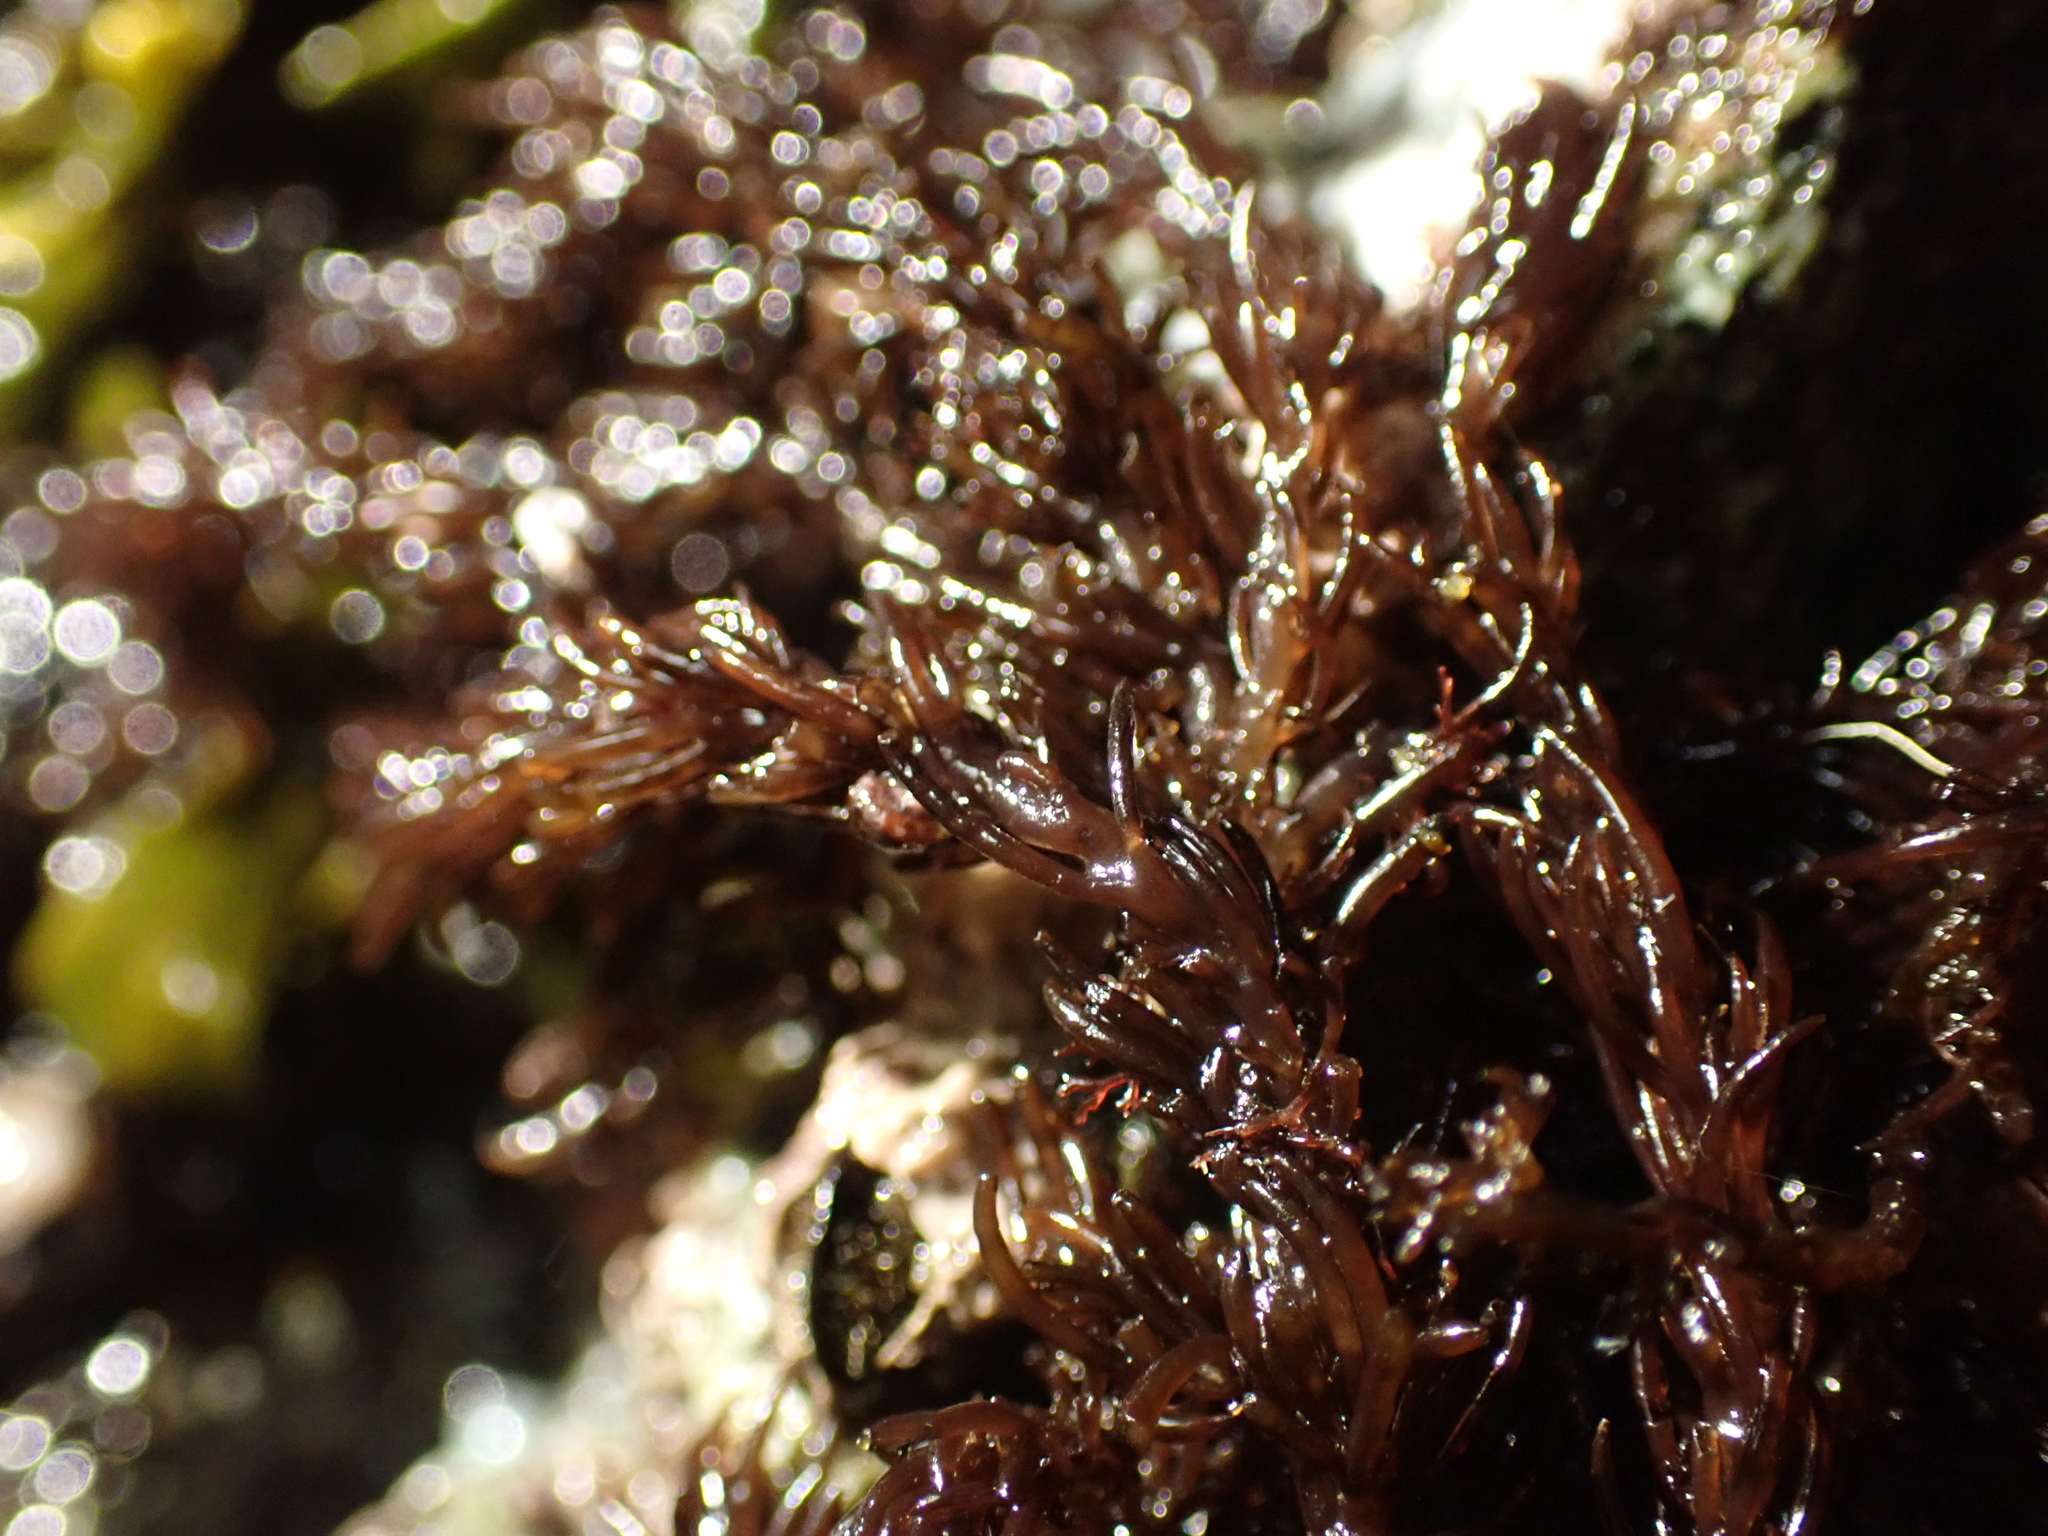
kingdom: Plantae
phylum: Rhodophyta
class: Florideophyceae
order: Ceramiales
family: Rhodomelaceae
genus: Neorhodomela
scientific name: Neorhodomela larix
